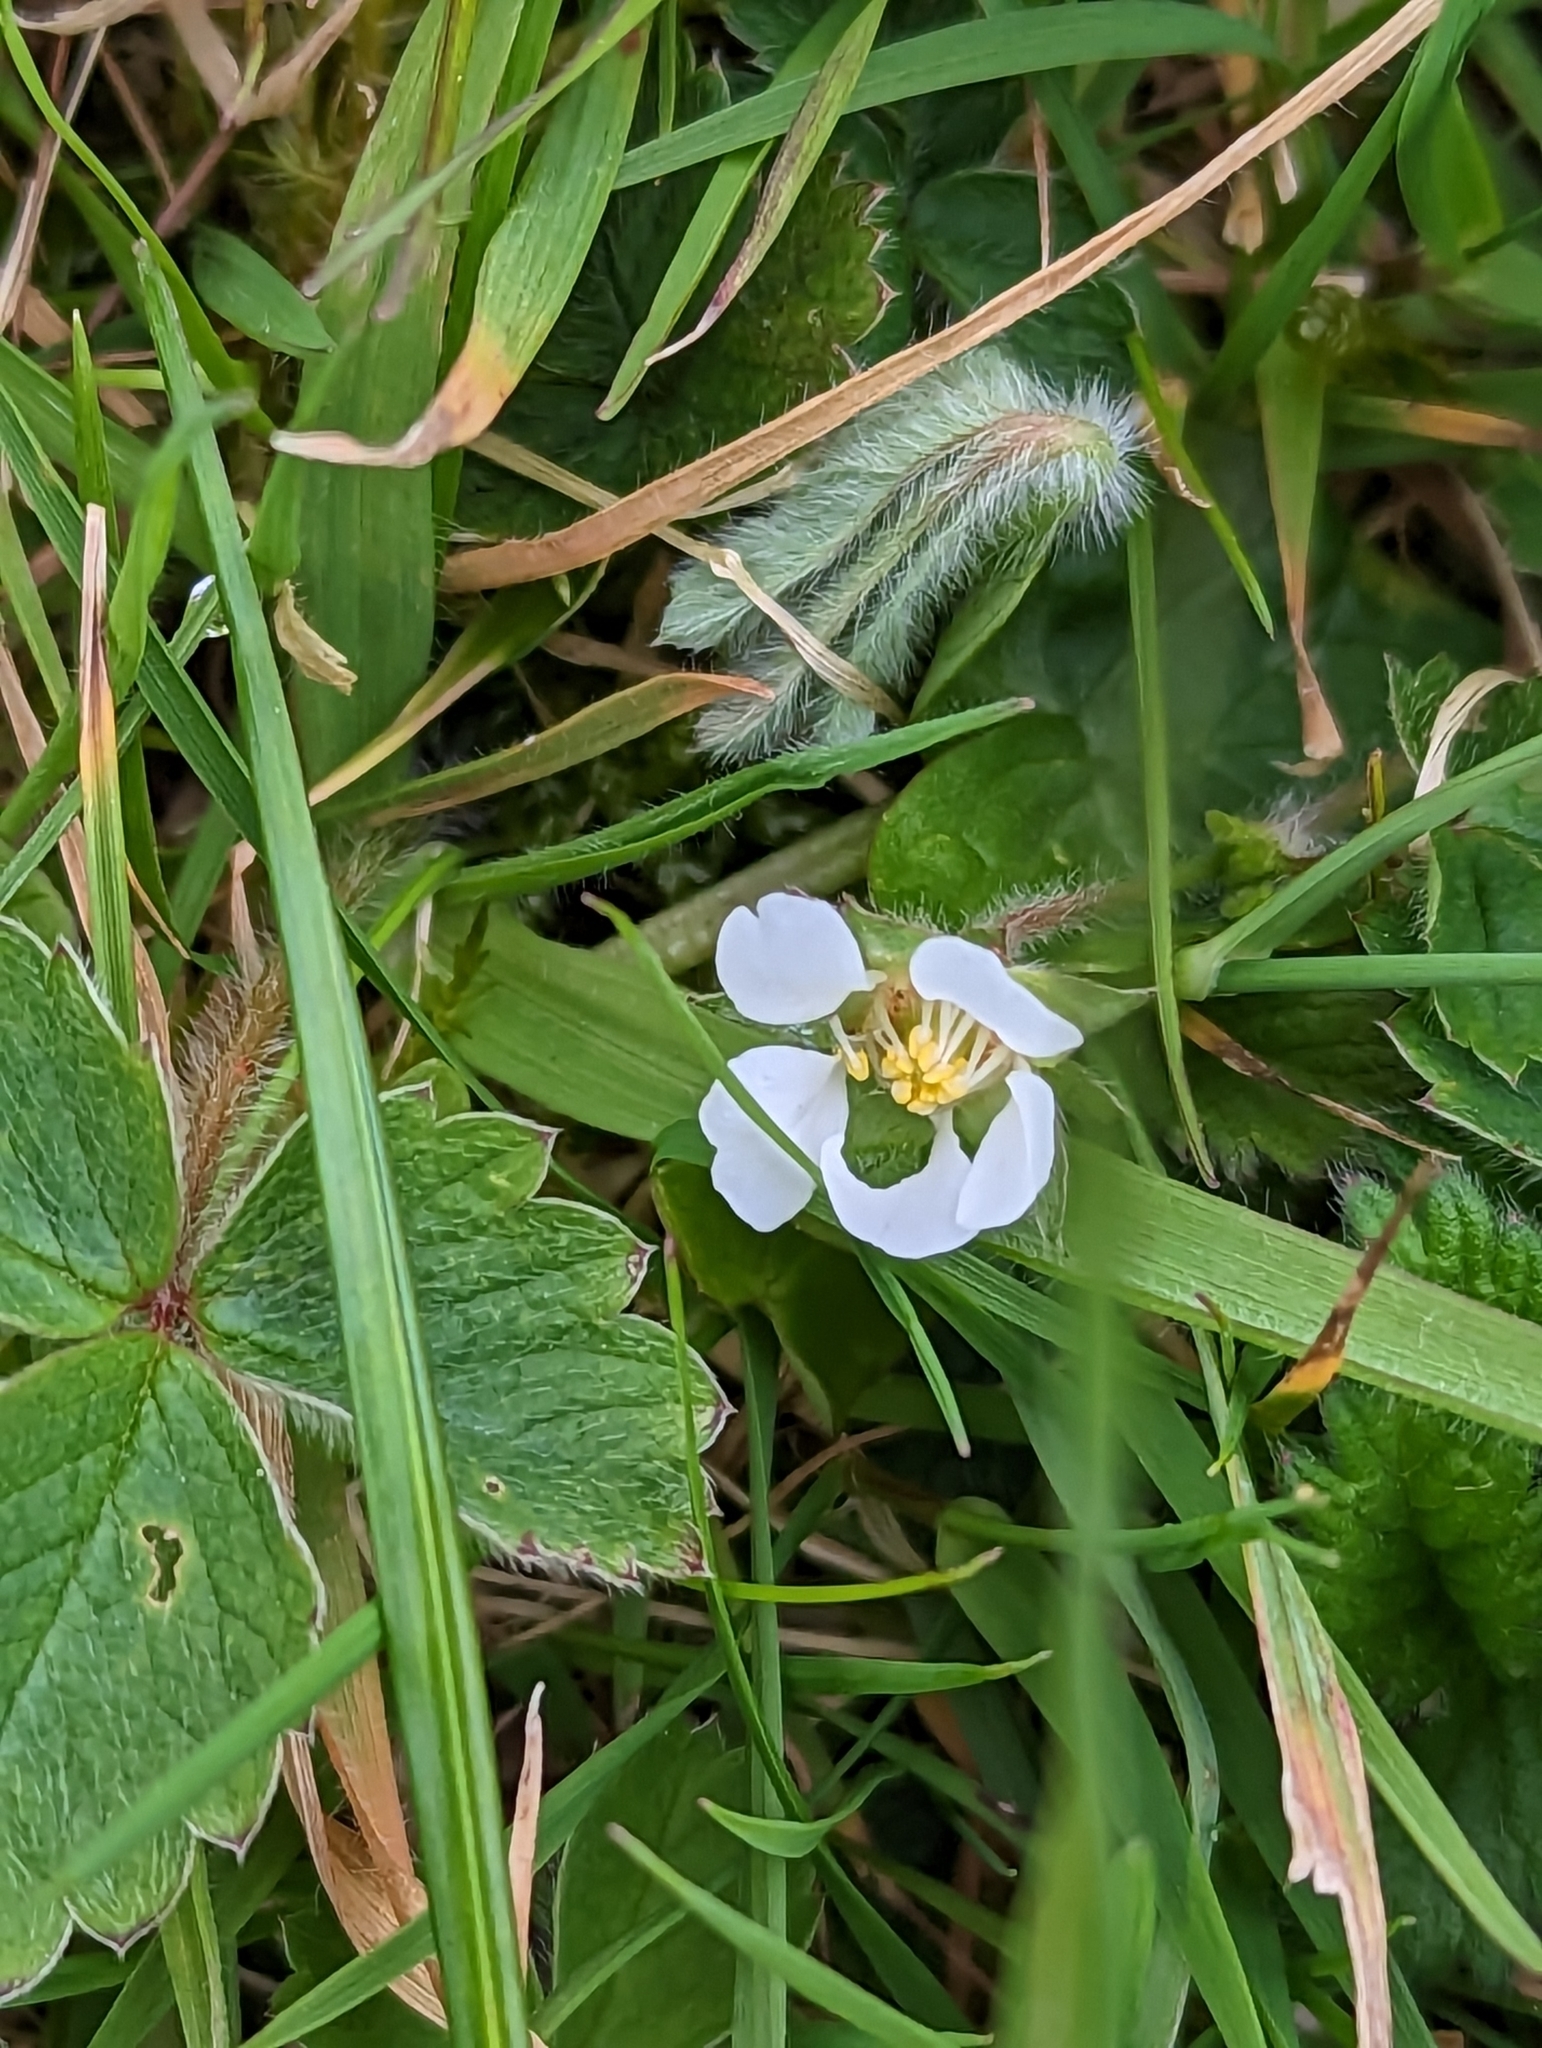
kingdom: Plantae
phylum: Tracheophyta
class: Magnoliopsida
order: Rosales
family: Rosaceae
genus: Potentilla
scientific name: Potentilla sterilis
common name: Barren strawberry
